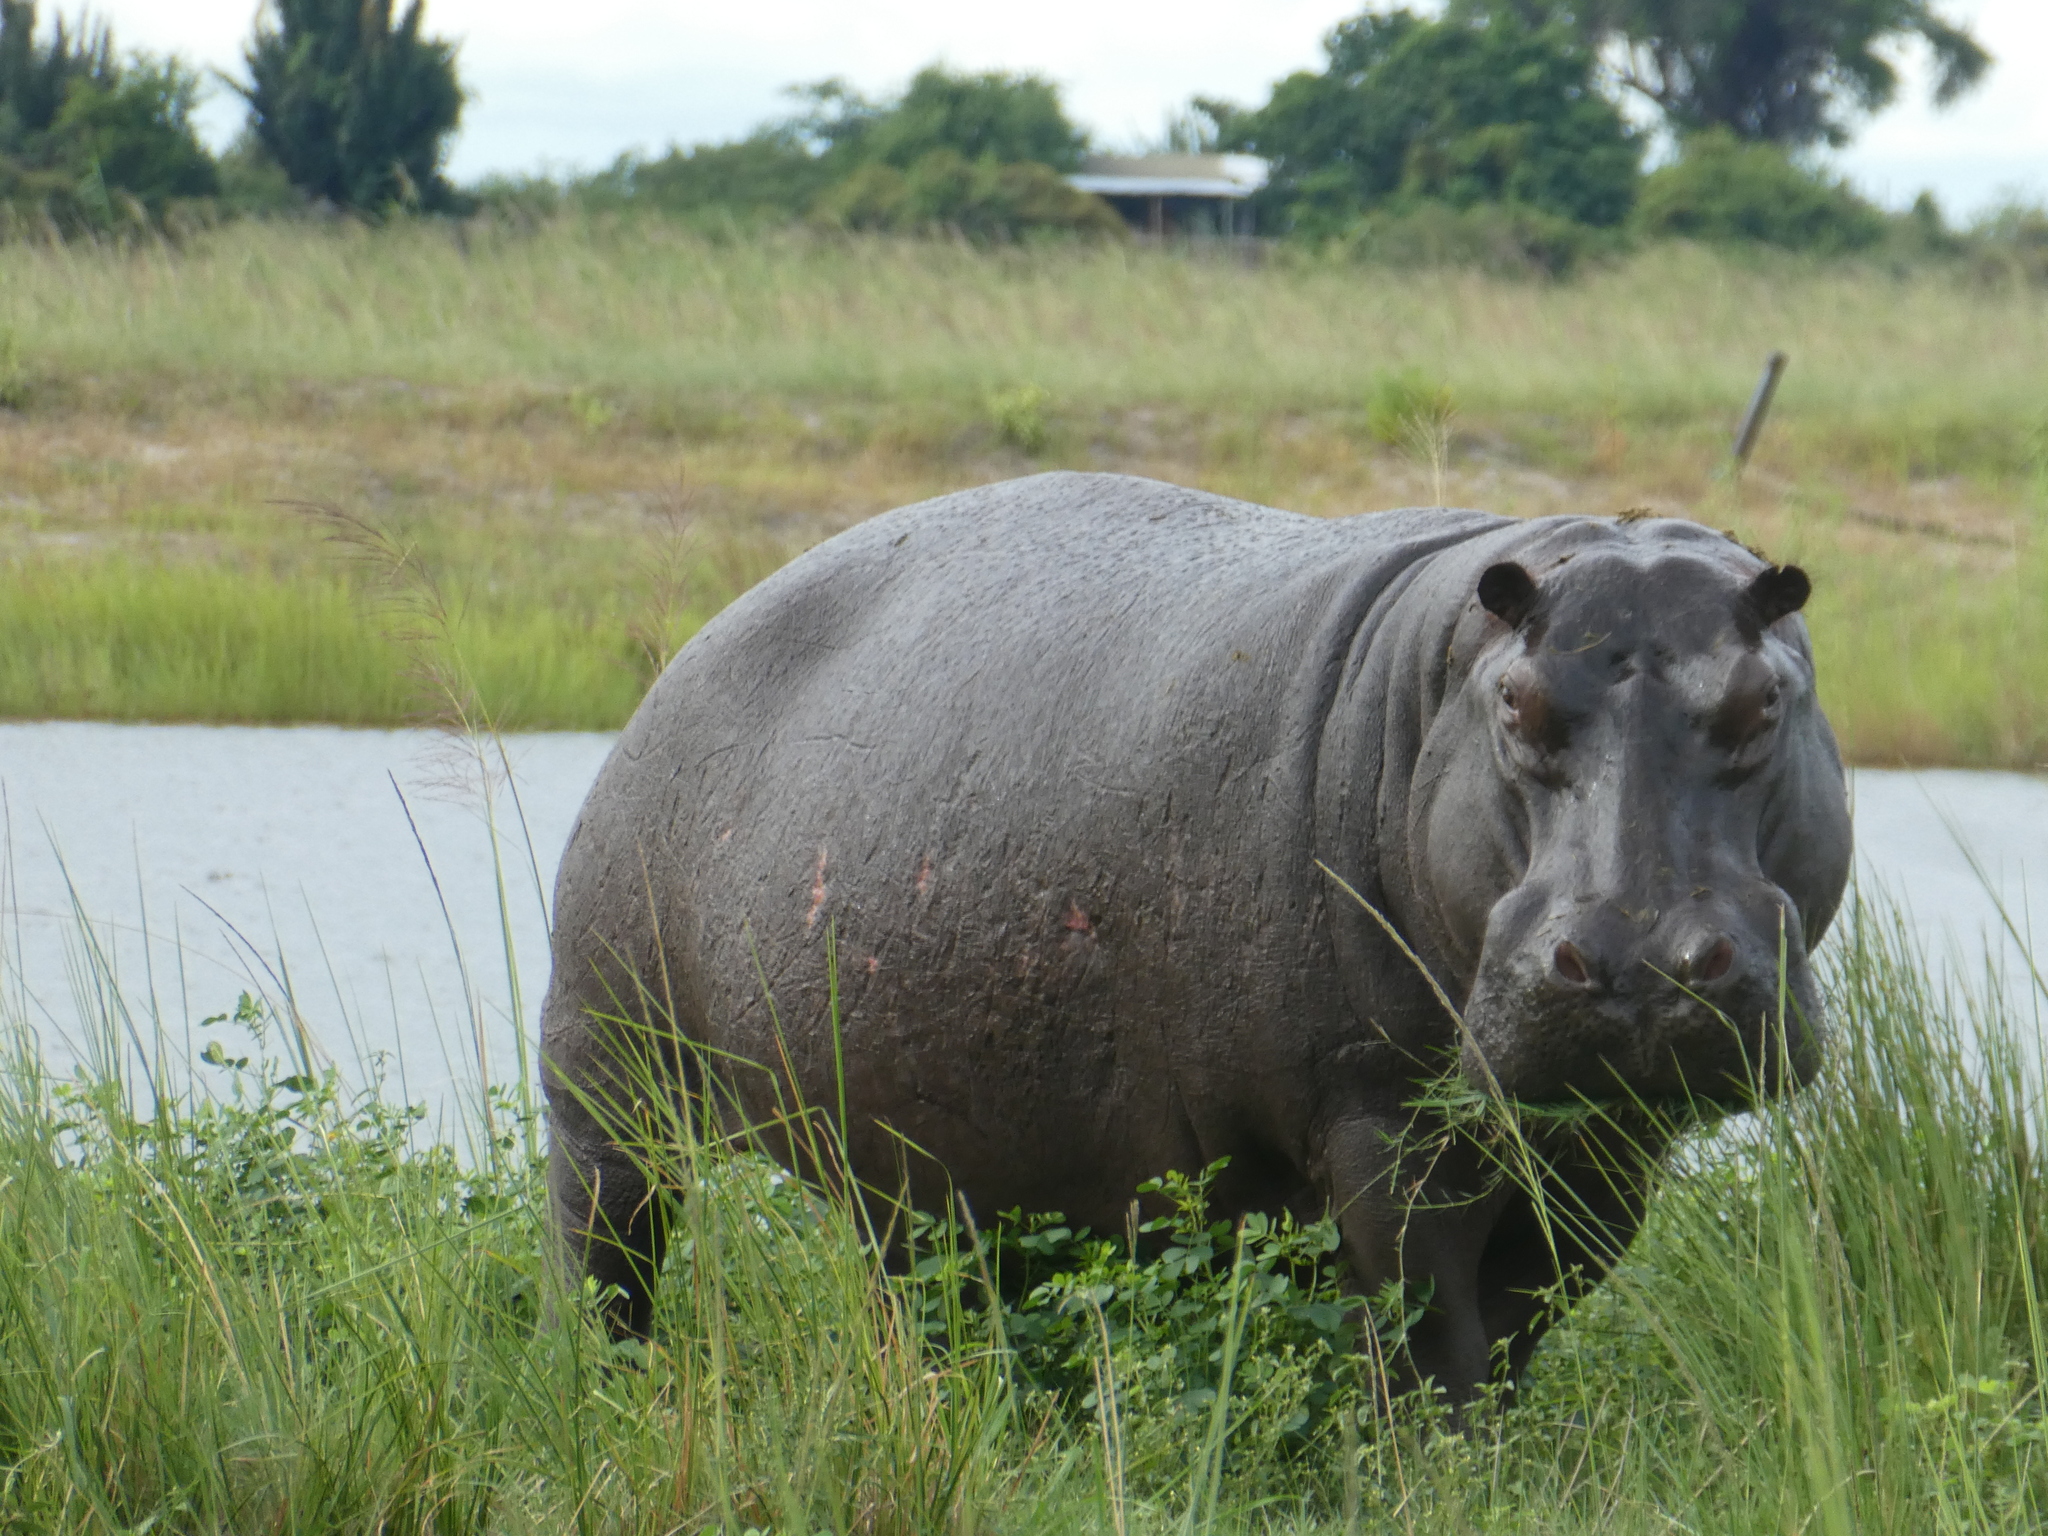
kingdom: Animalia
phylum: Chordata
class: Mammalia
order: Artiodactyla
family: Hippopotamidae
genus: Hippopotamus
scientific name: Hippopotamus amphibius
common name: Common hippopotamus
